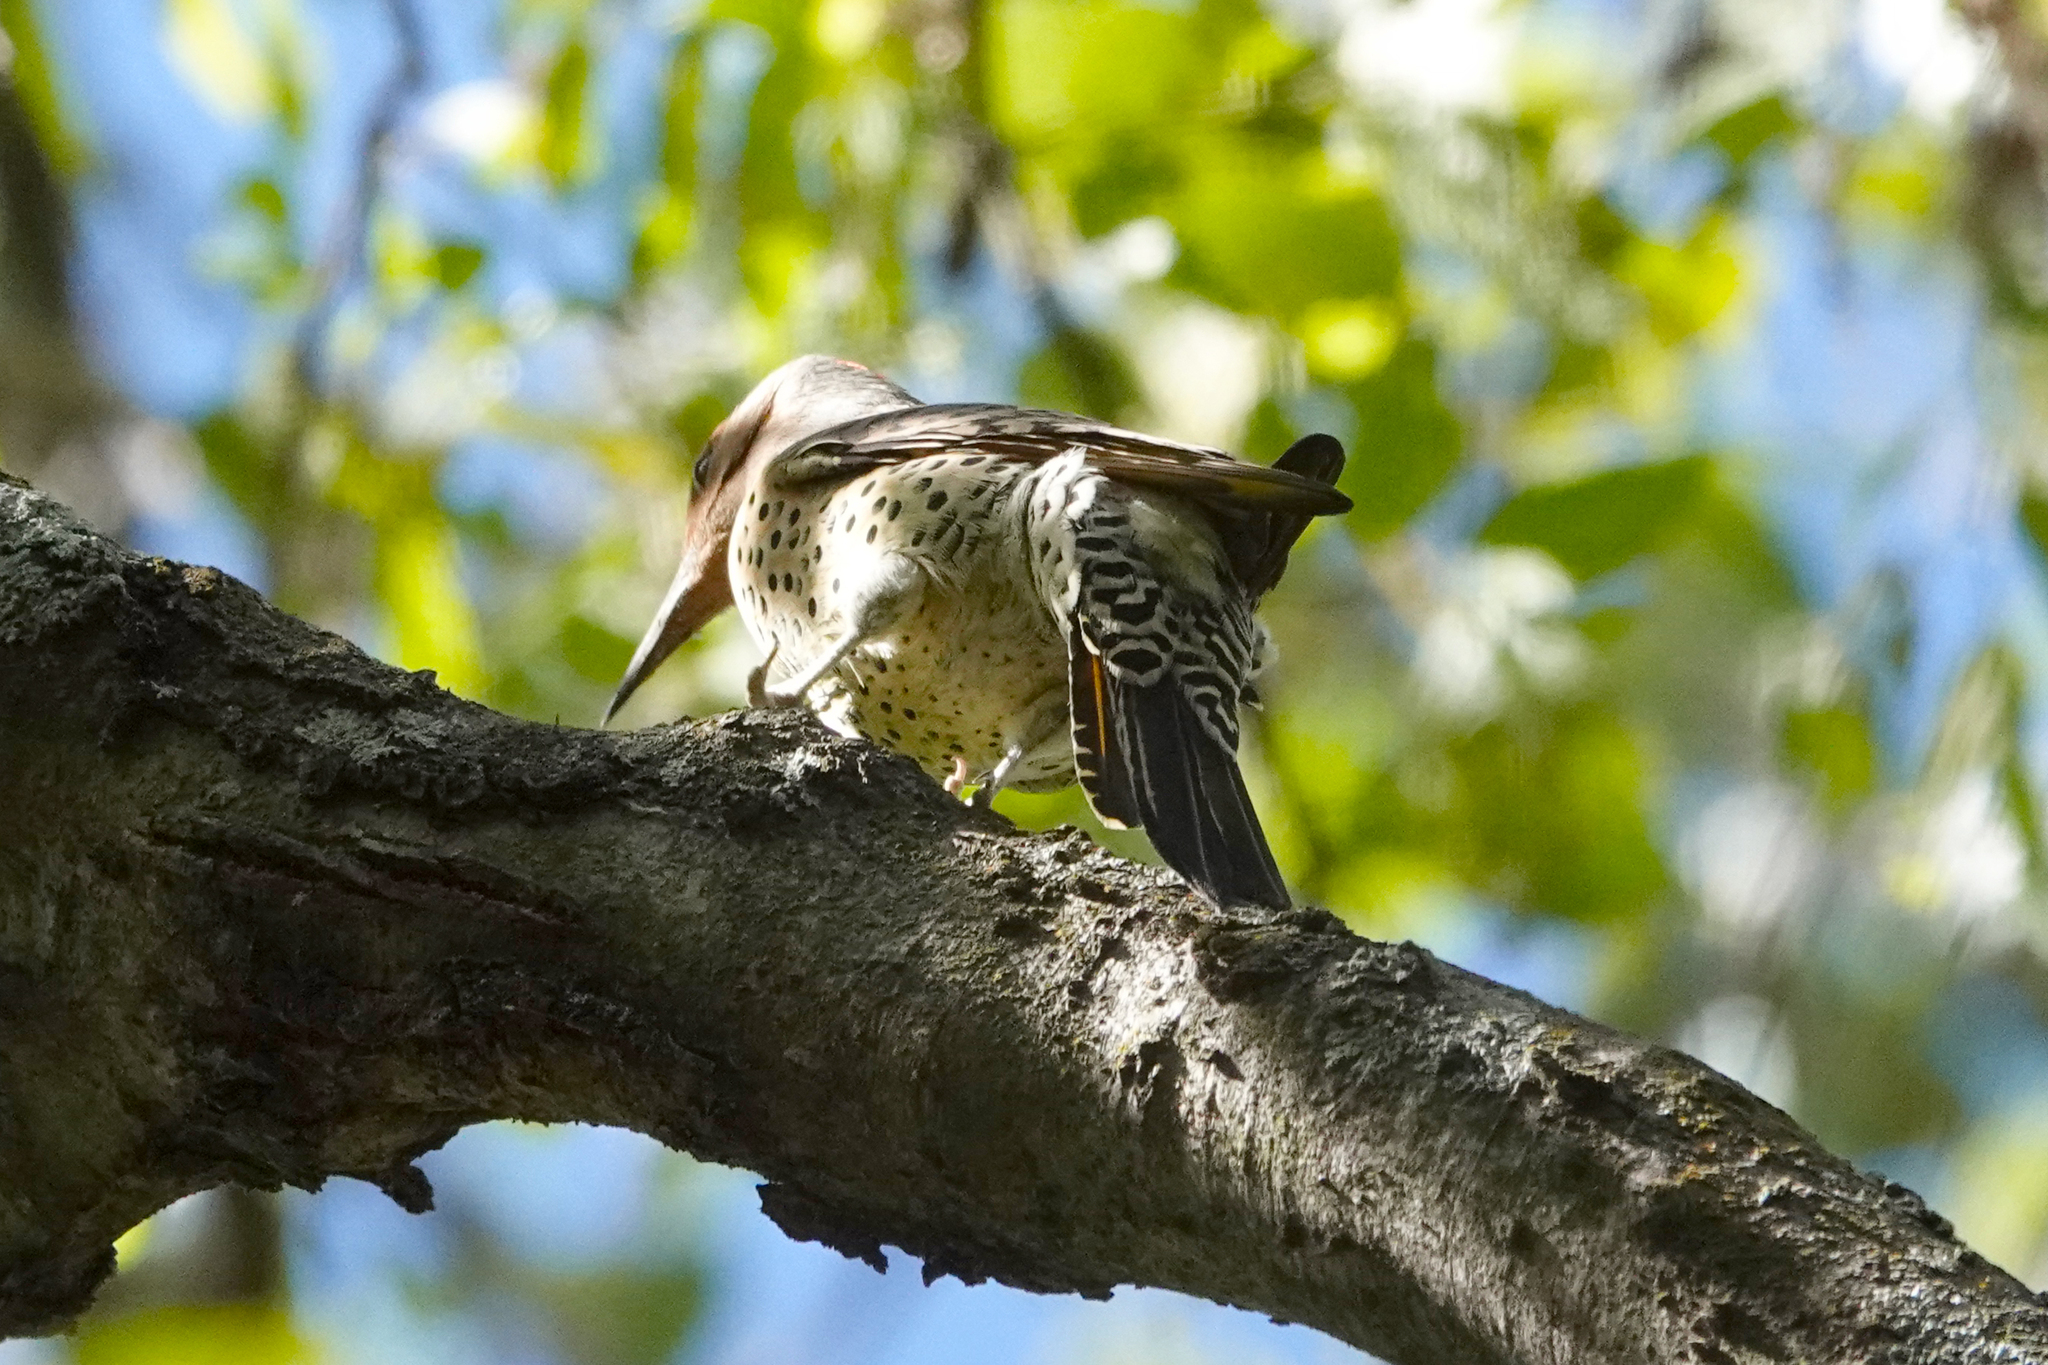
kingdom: Animalia
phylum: Chordata
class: Aves
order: Piciformes
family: Picidae
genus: Colaptes
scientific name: Colaptes auratus
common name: Northern flicker
